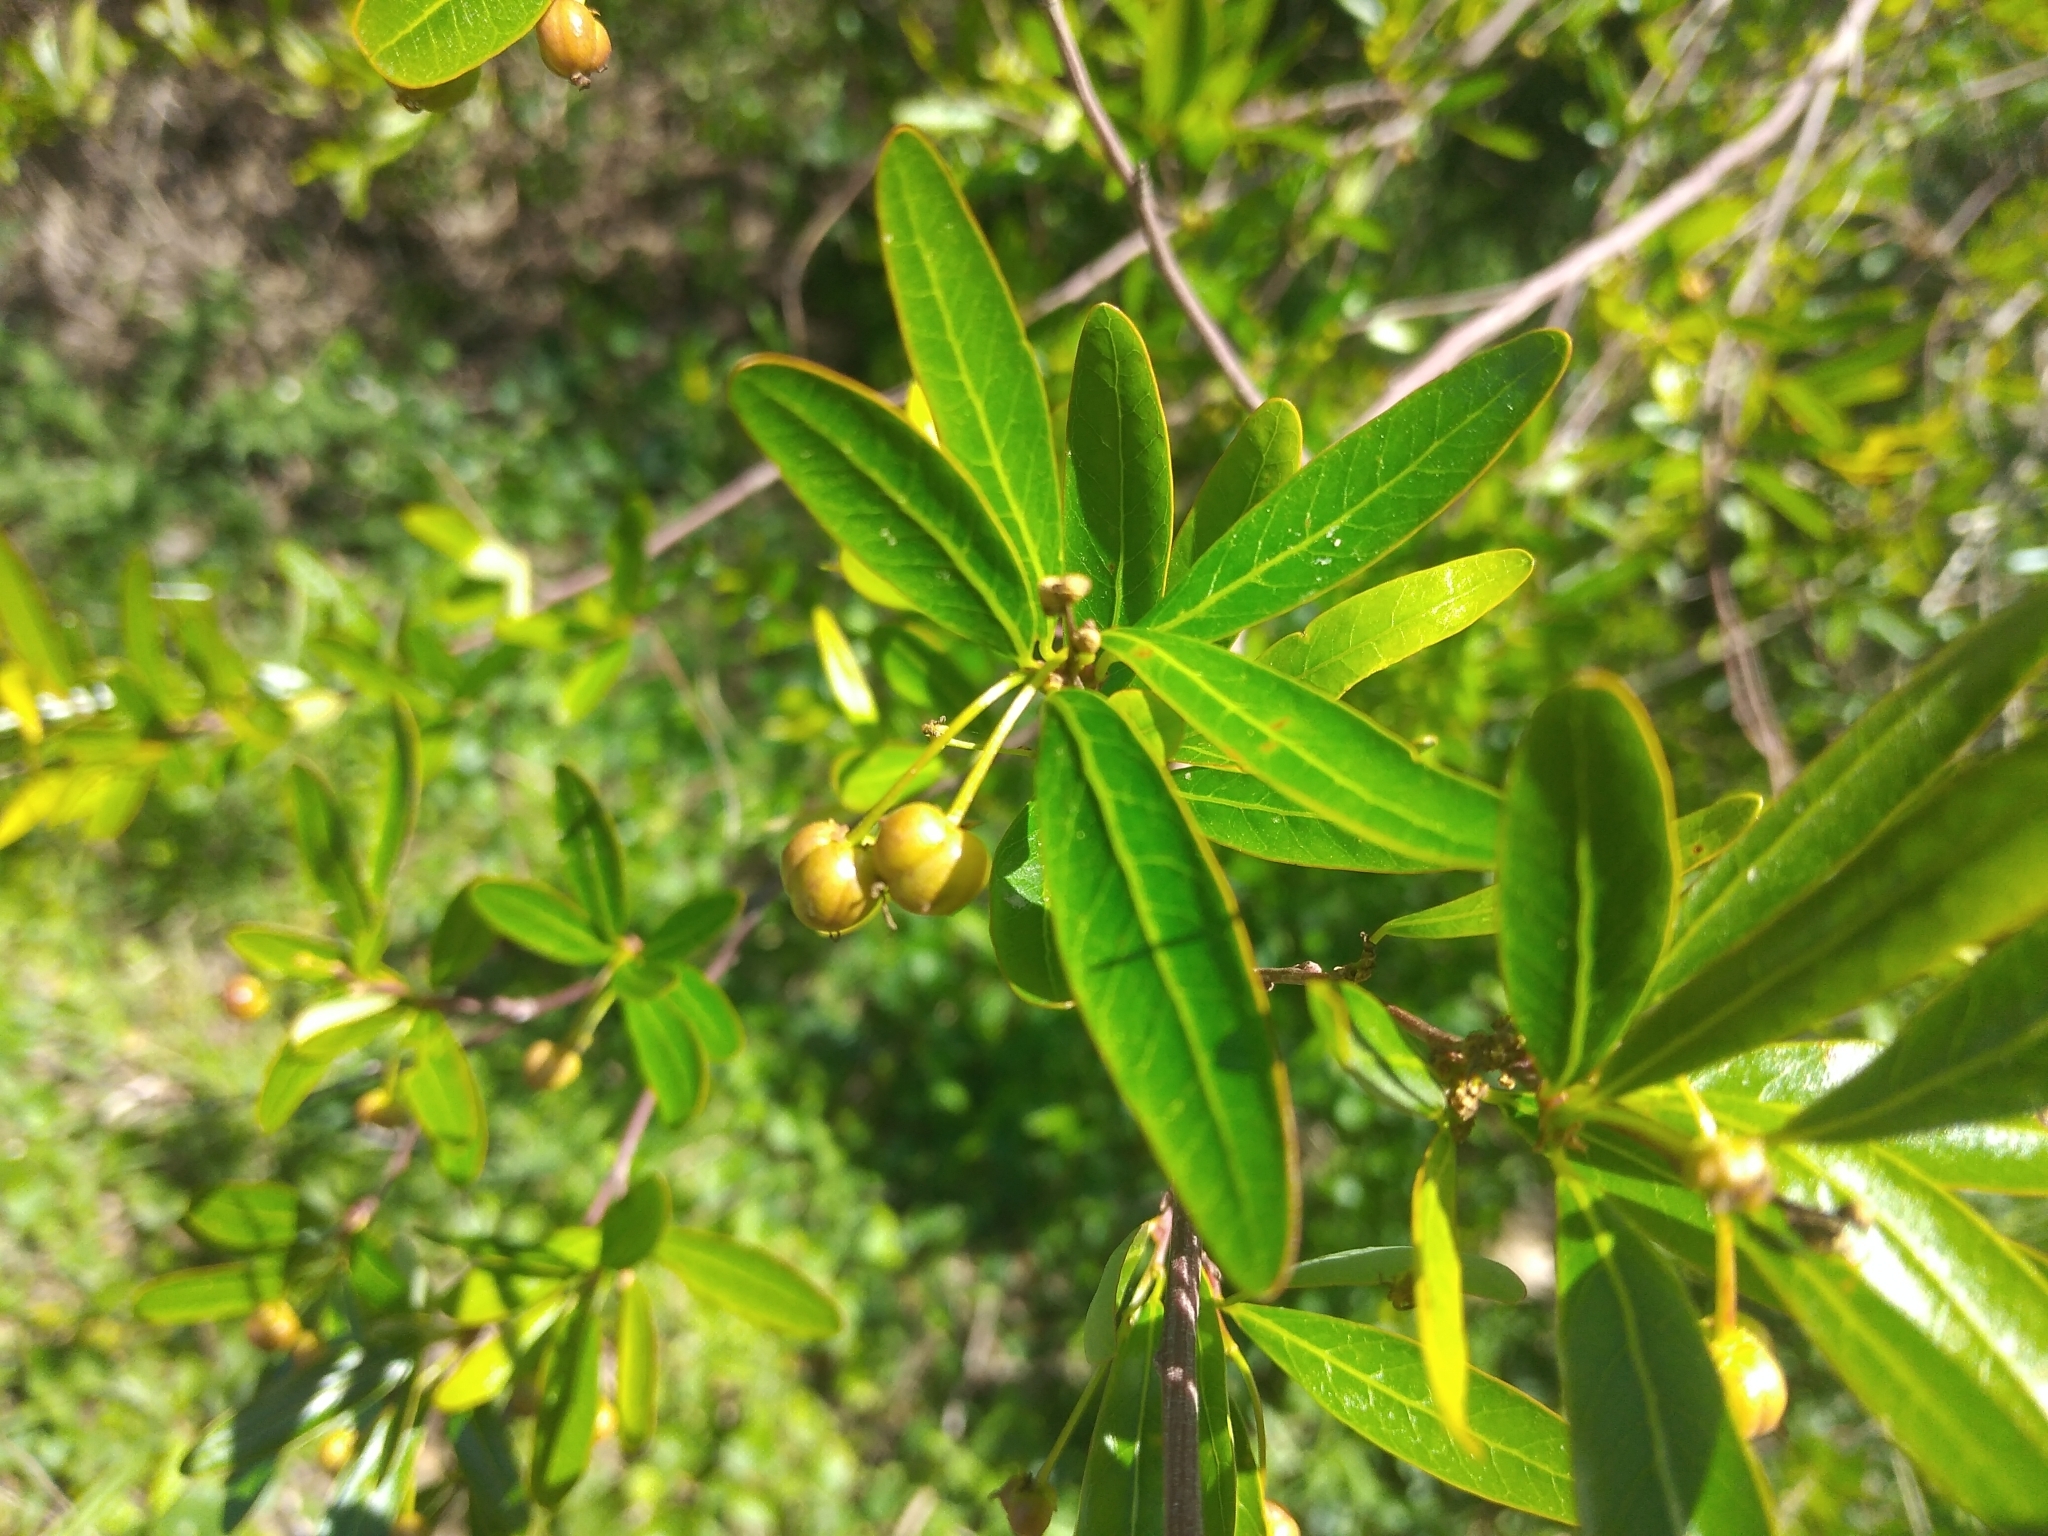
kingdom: Plantae
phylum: Tracheophyta
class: Magnoliopsida
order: Malpighiales
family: Euphorbiaceae
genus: Sebastiania
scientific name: Sebastiania klotzschiana
